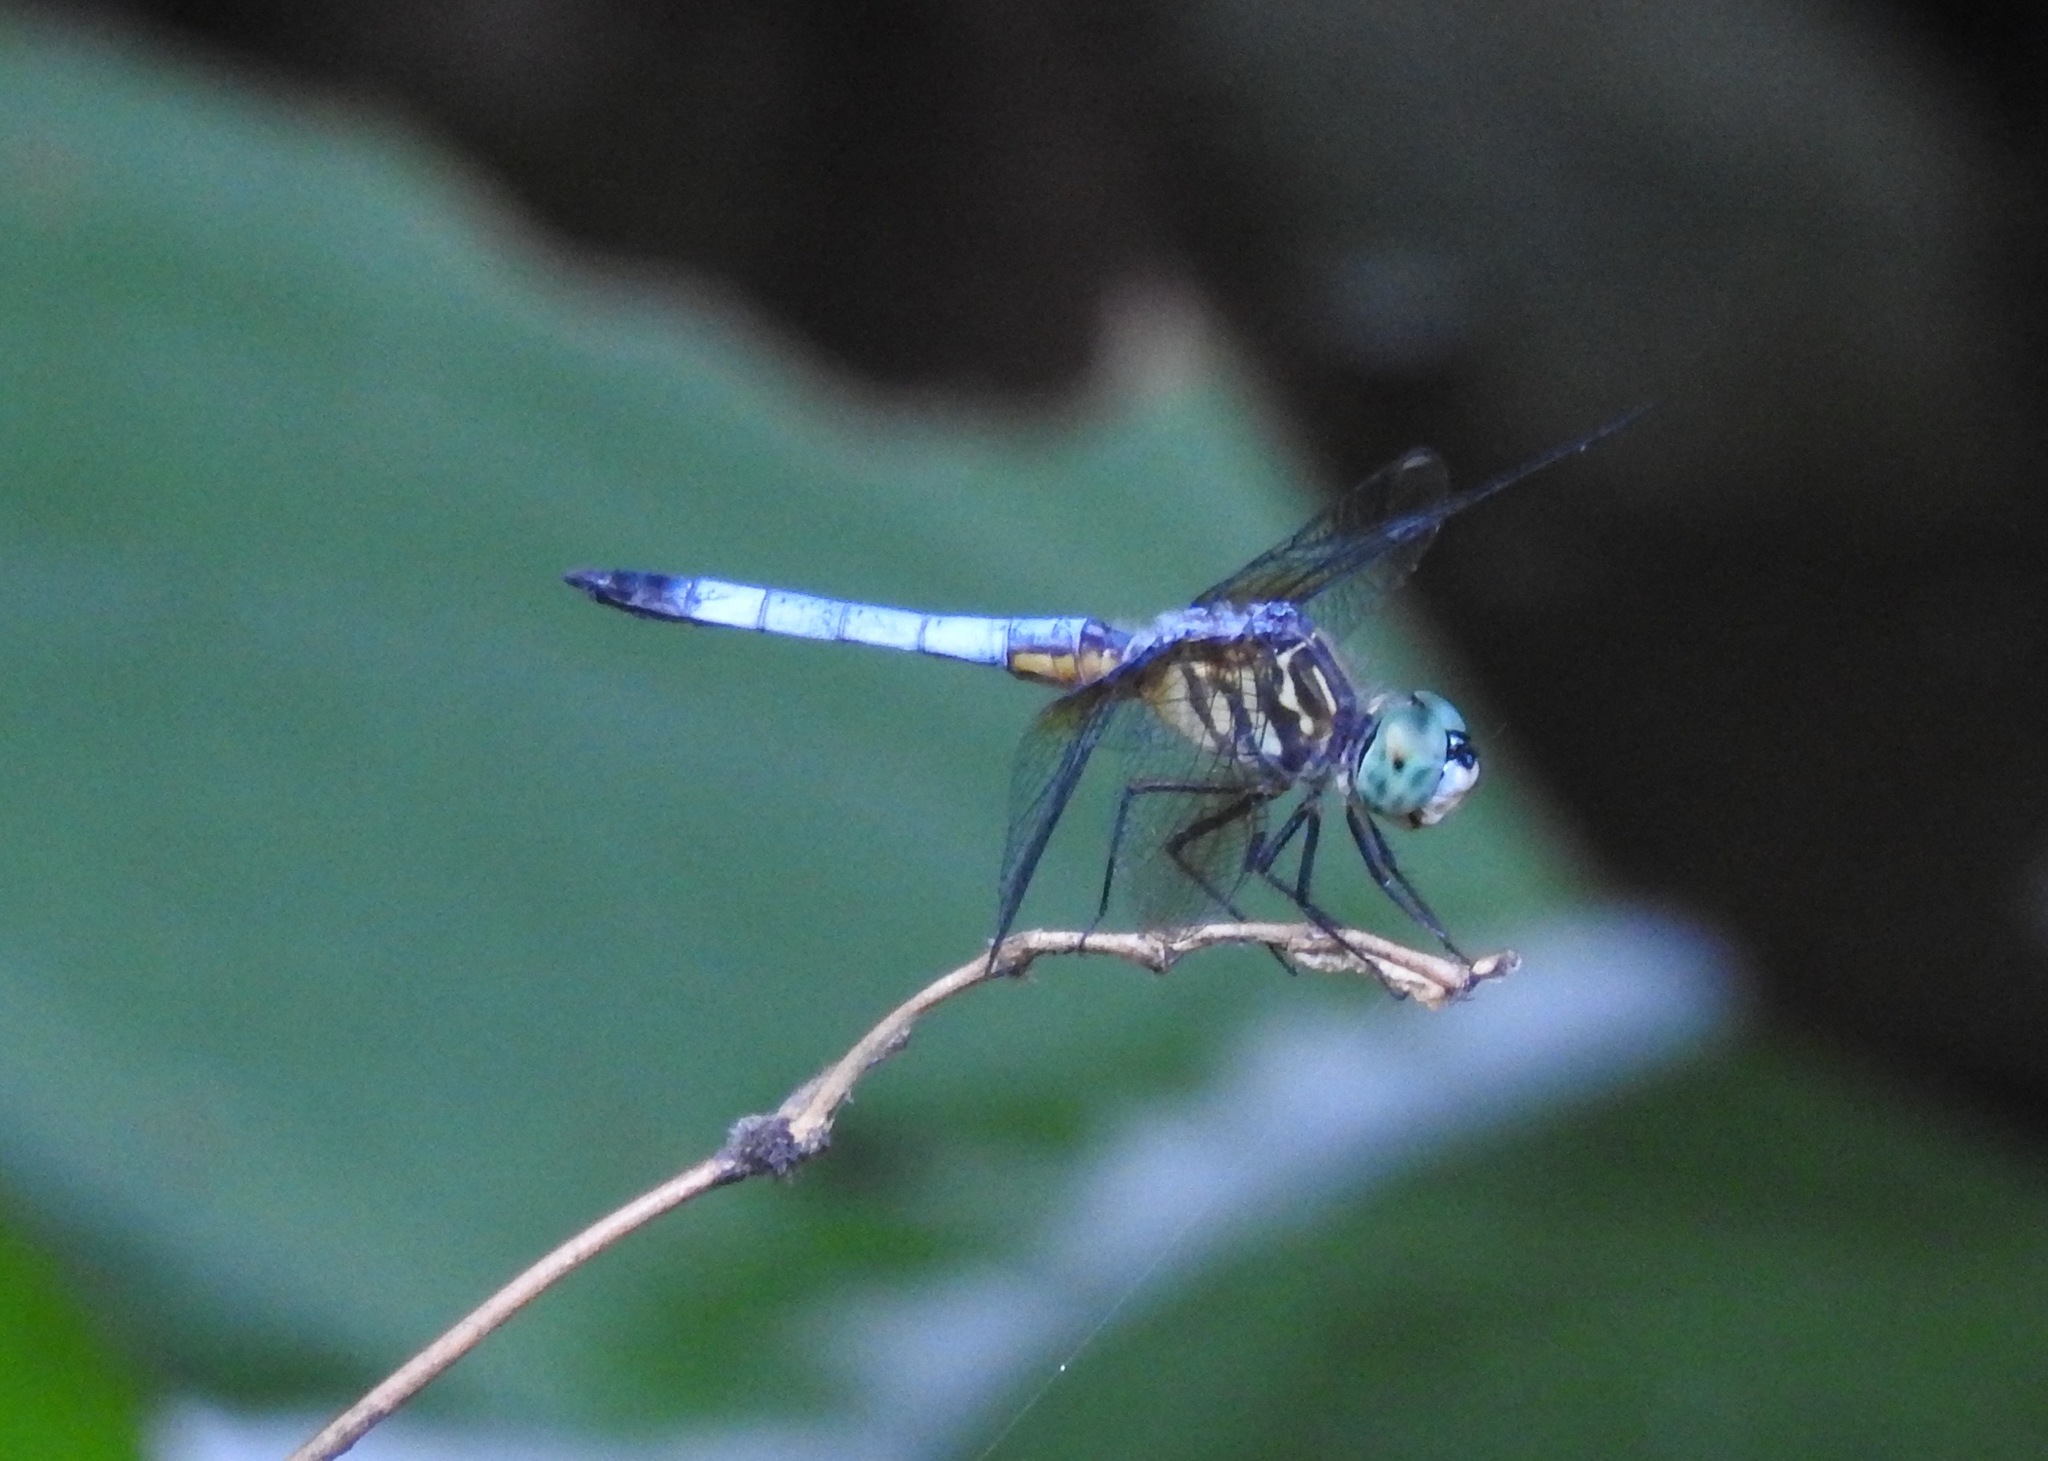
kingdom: Animalia
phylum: Arthropoda
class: Insecta
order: Odonata
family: Libellulidae
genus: Pachydiplax
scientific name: Pachydiplax longipennis
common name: Blue dasher
